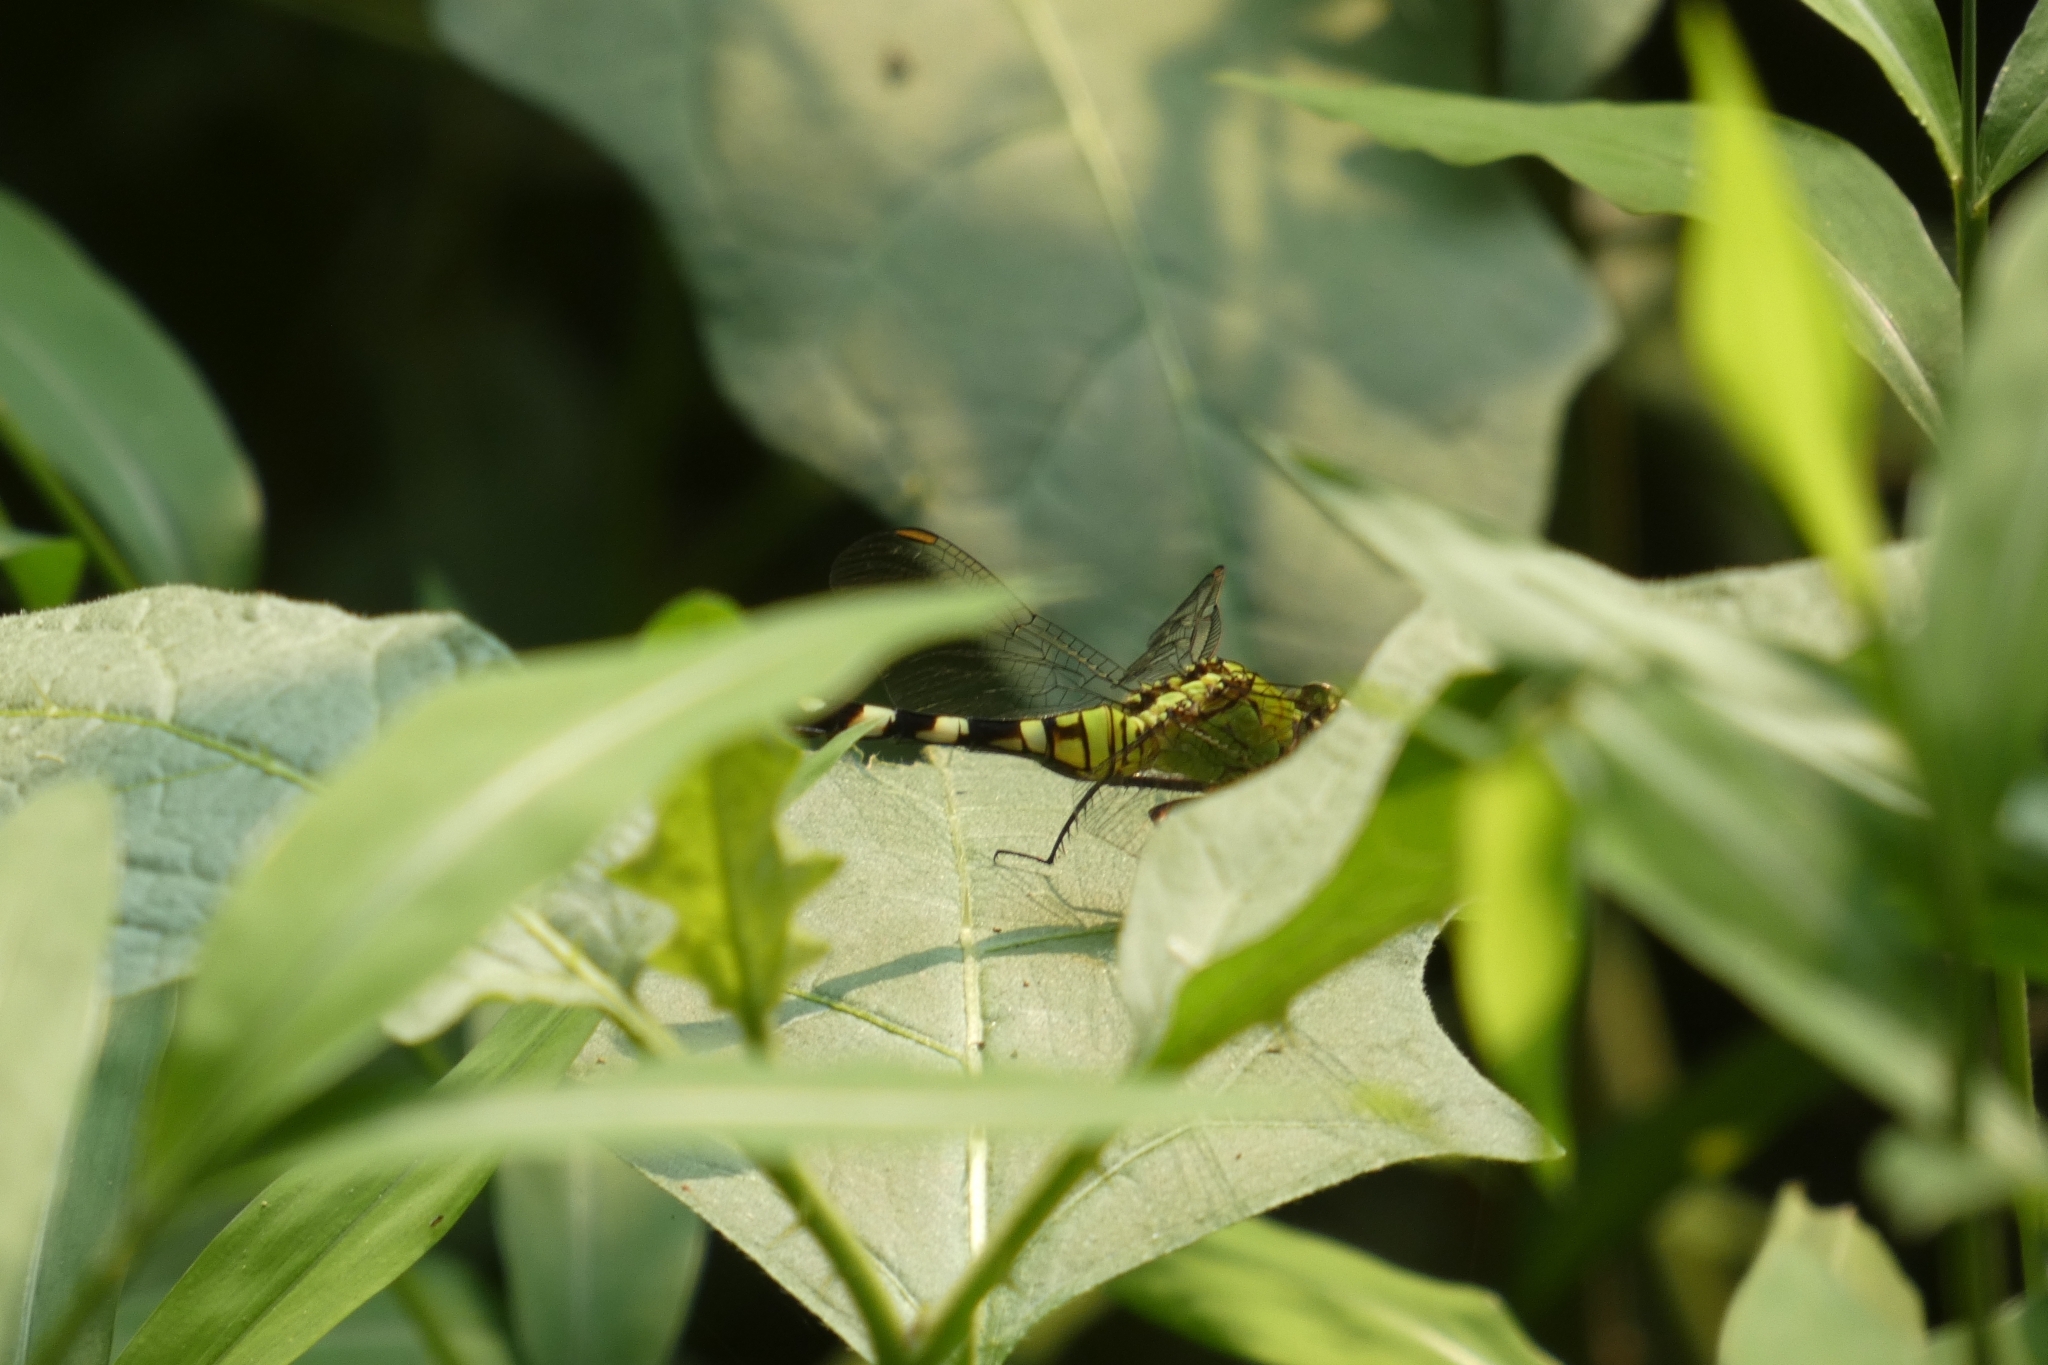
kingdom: Animalia
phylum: Arthropoda
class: Insecta
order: Odonata
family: Libellulidae
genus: Erythemis
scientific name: Erythemis simplicicollis
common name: Eastern pondhawk
